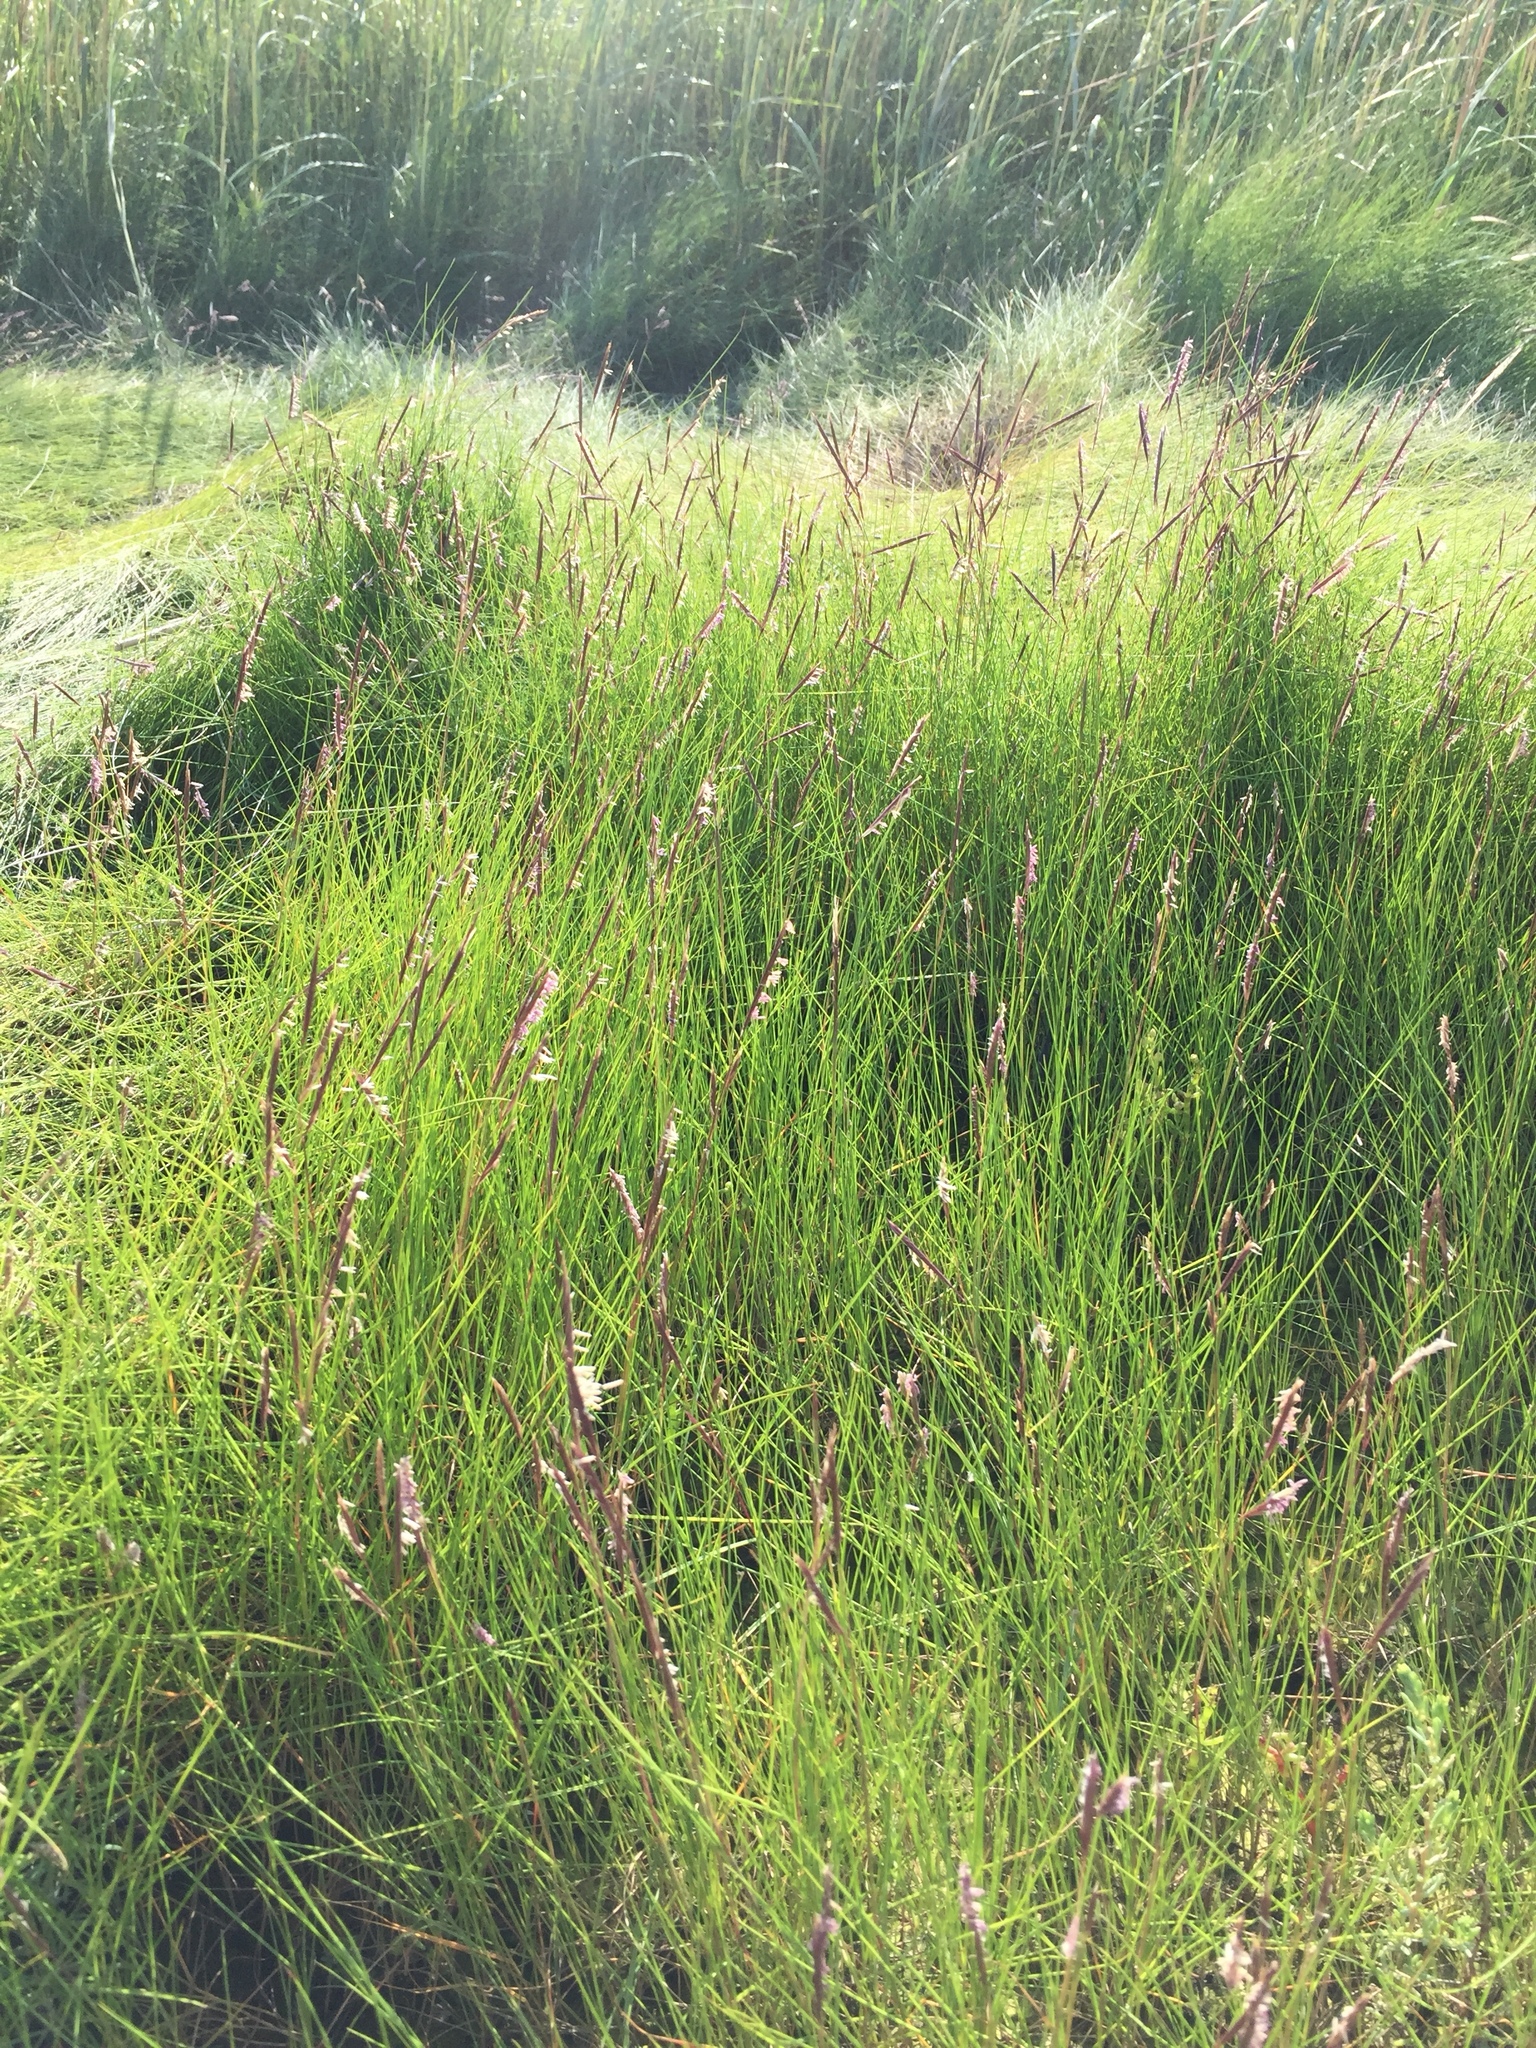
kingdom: Plantae
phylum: Tracheophyta
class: Liliopsida
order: Poales
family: Poaceae
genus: Sporobolus
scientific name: Sporobolus pumilus
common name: Highwater grass
